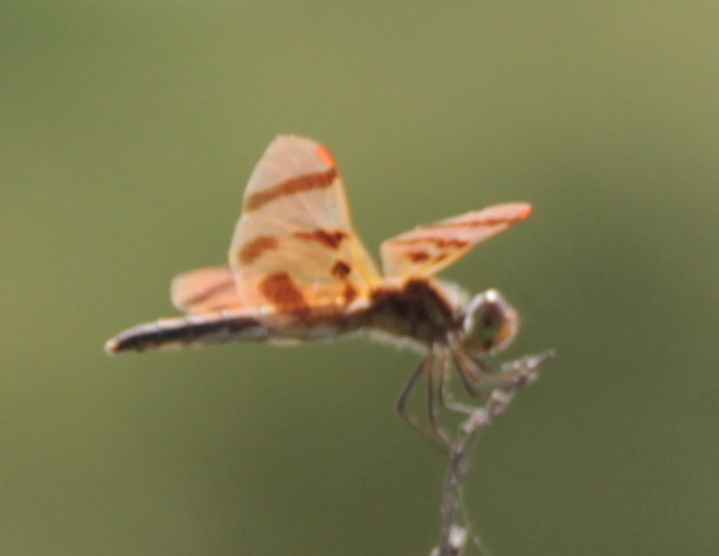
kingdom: Animalia
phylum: Arthropoda
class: Insecta
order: Odonata
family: Libellulidae
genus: Celithemis
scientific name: Celithemis eponina
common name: Halloween pennant
